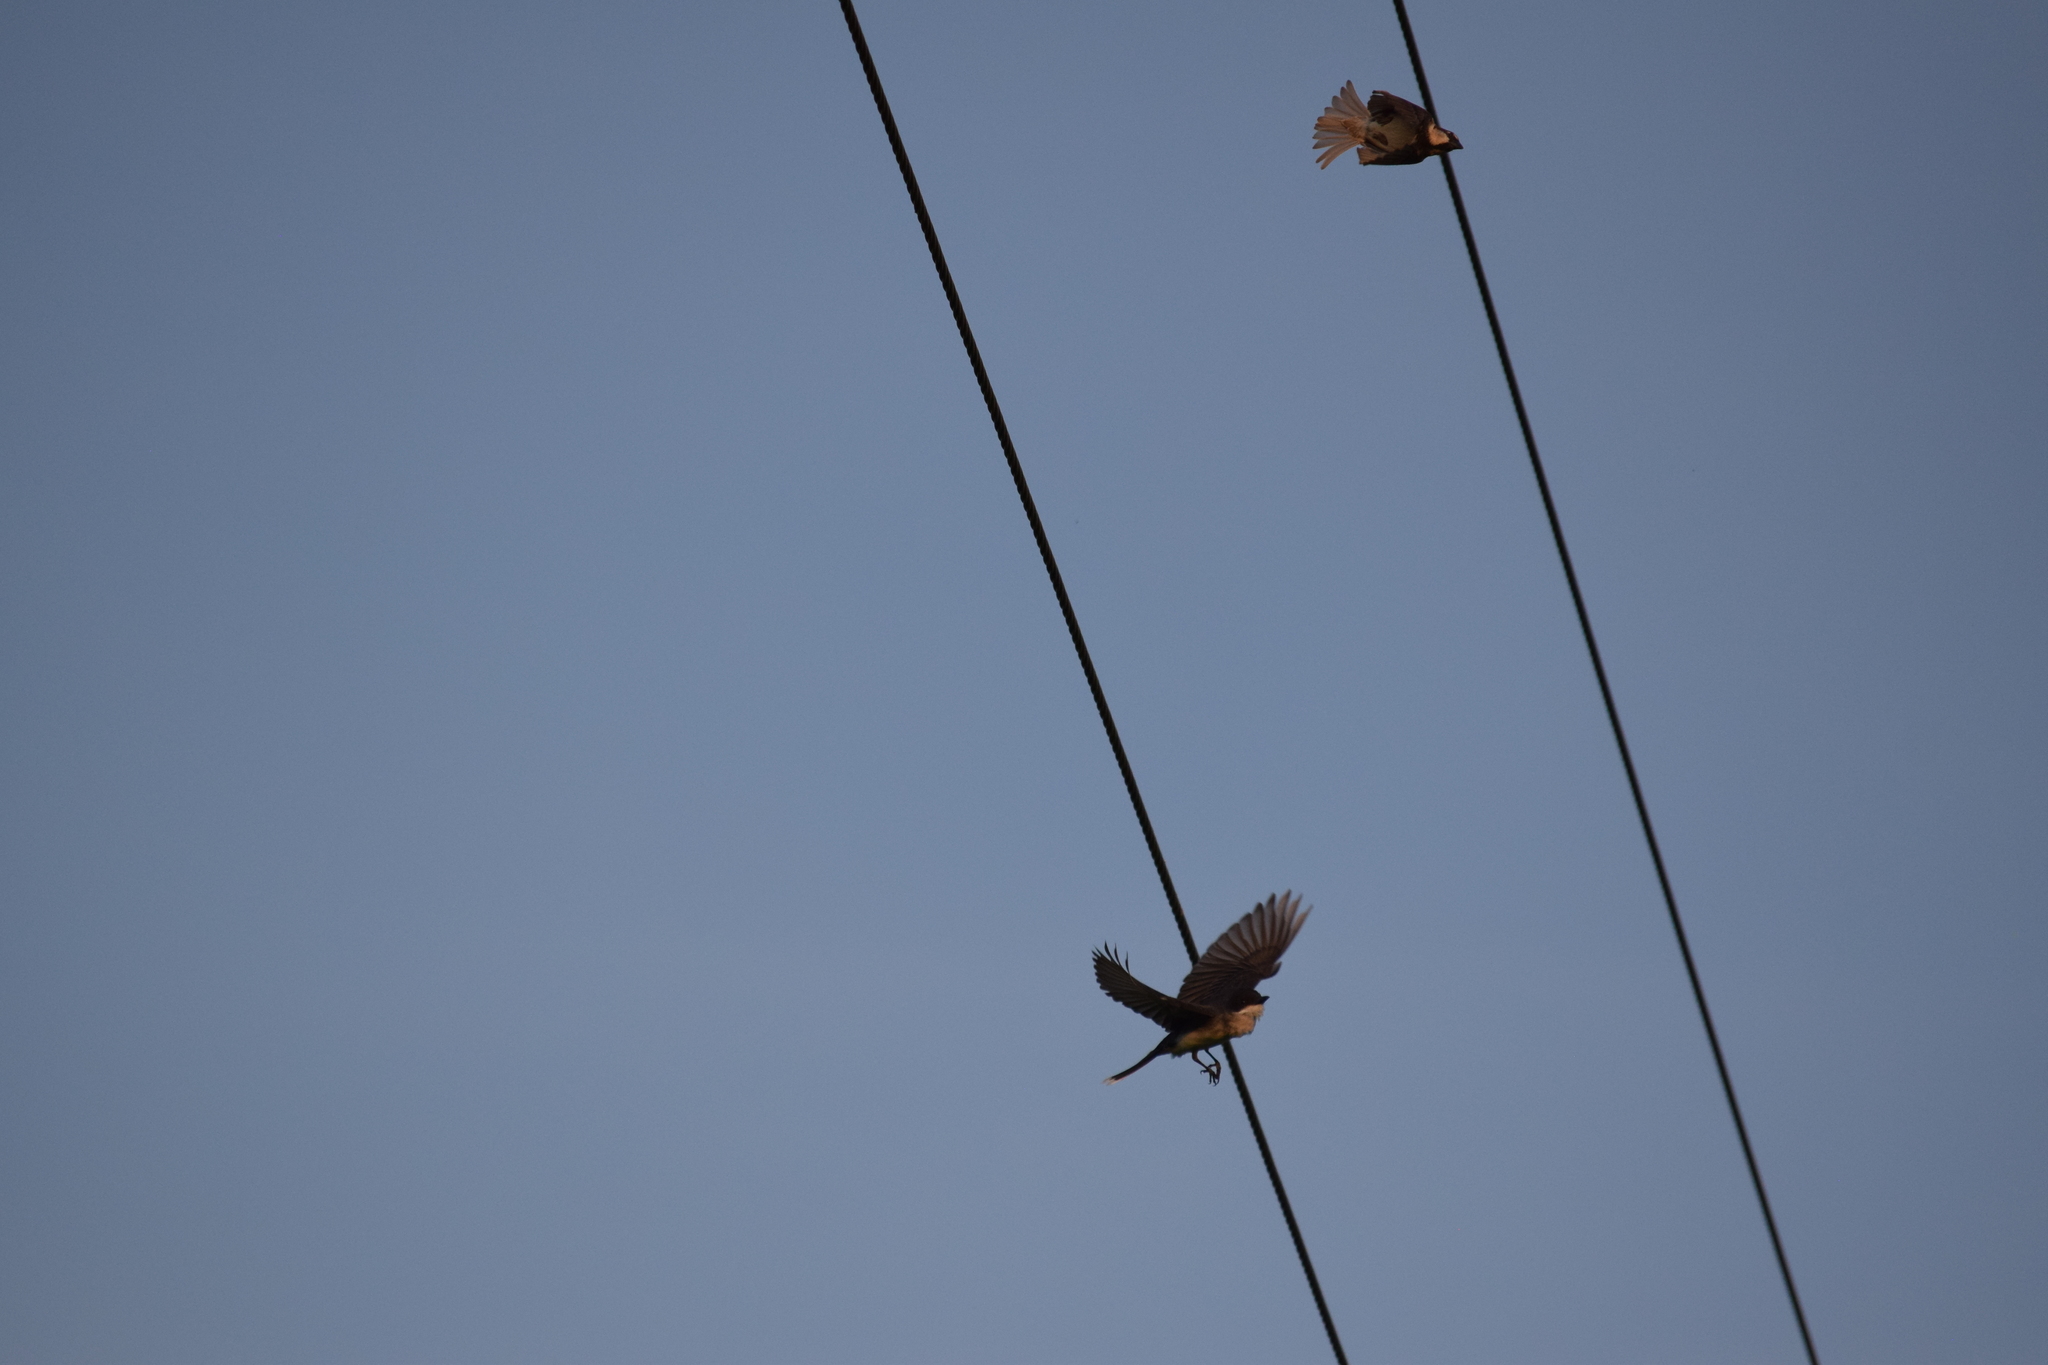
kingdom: Animalia
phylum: Chordata
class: Aves
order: Passeriformes
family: Tyrannidae
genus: Tyrannus
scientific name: Tyrannus tyrannus
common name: Eastern kingbird
